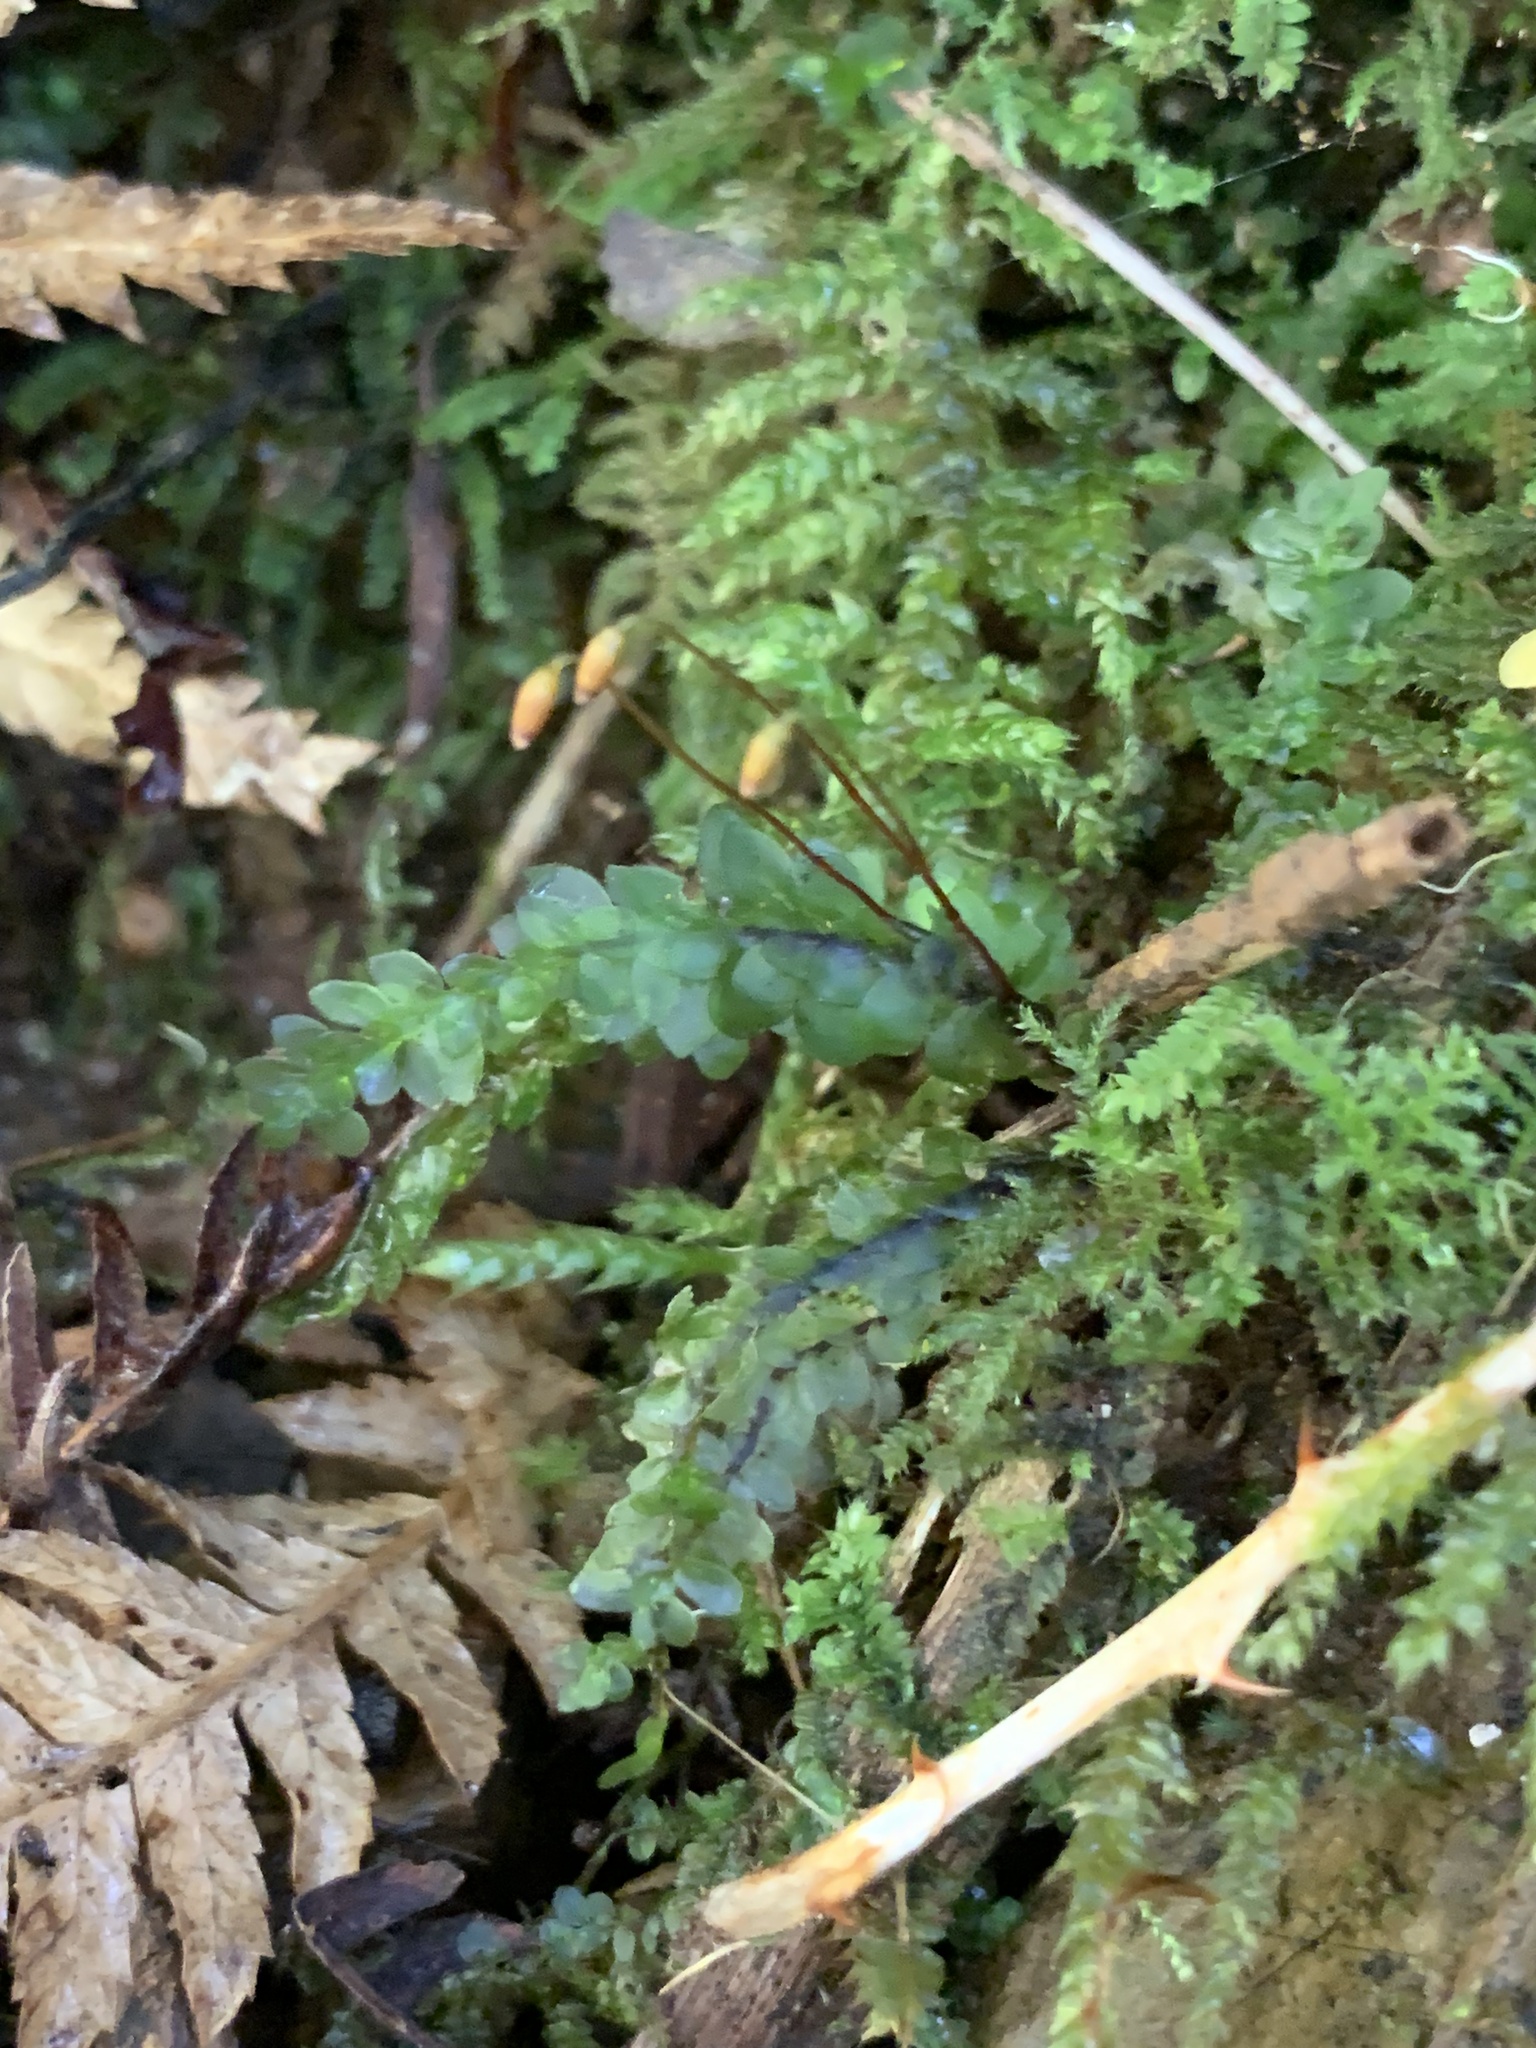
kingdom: Plantae
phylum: Bryophyta
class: Bryopsida
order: Hookeriales
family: Daltoniaceae
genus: Achrophyllum
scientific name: Achrophyllum dentatum
